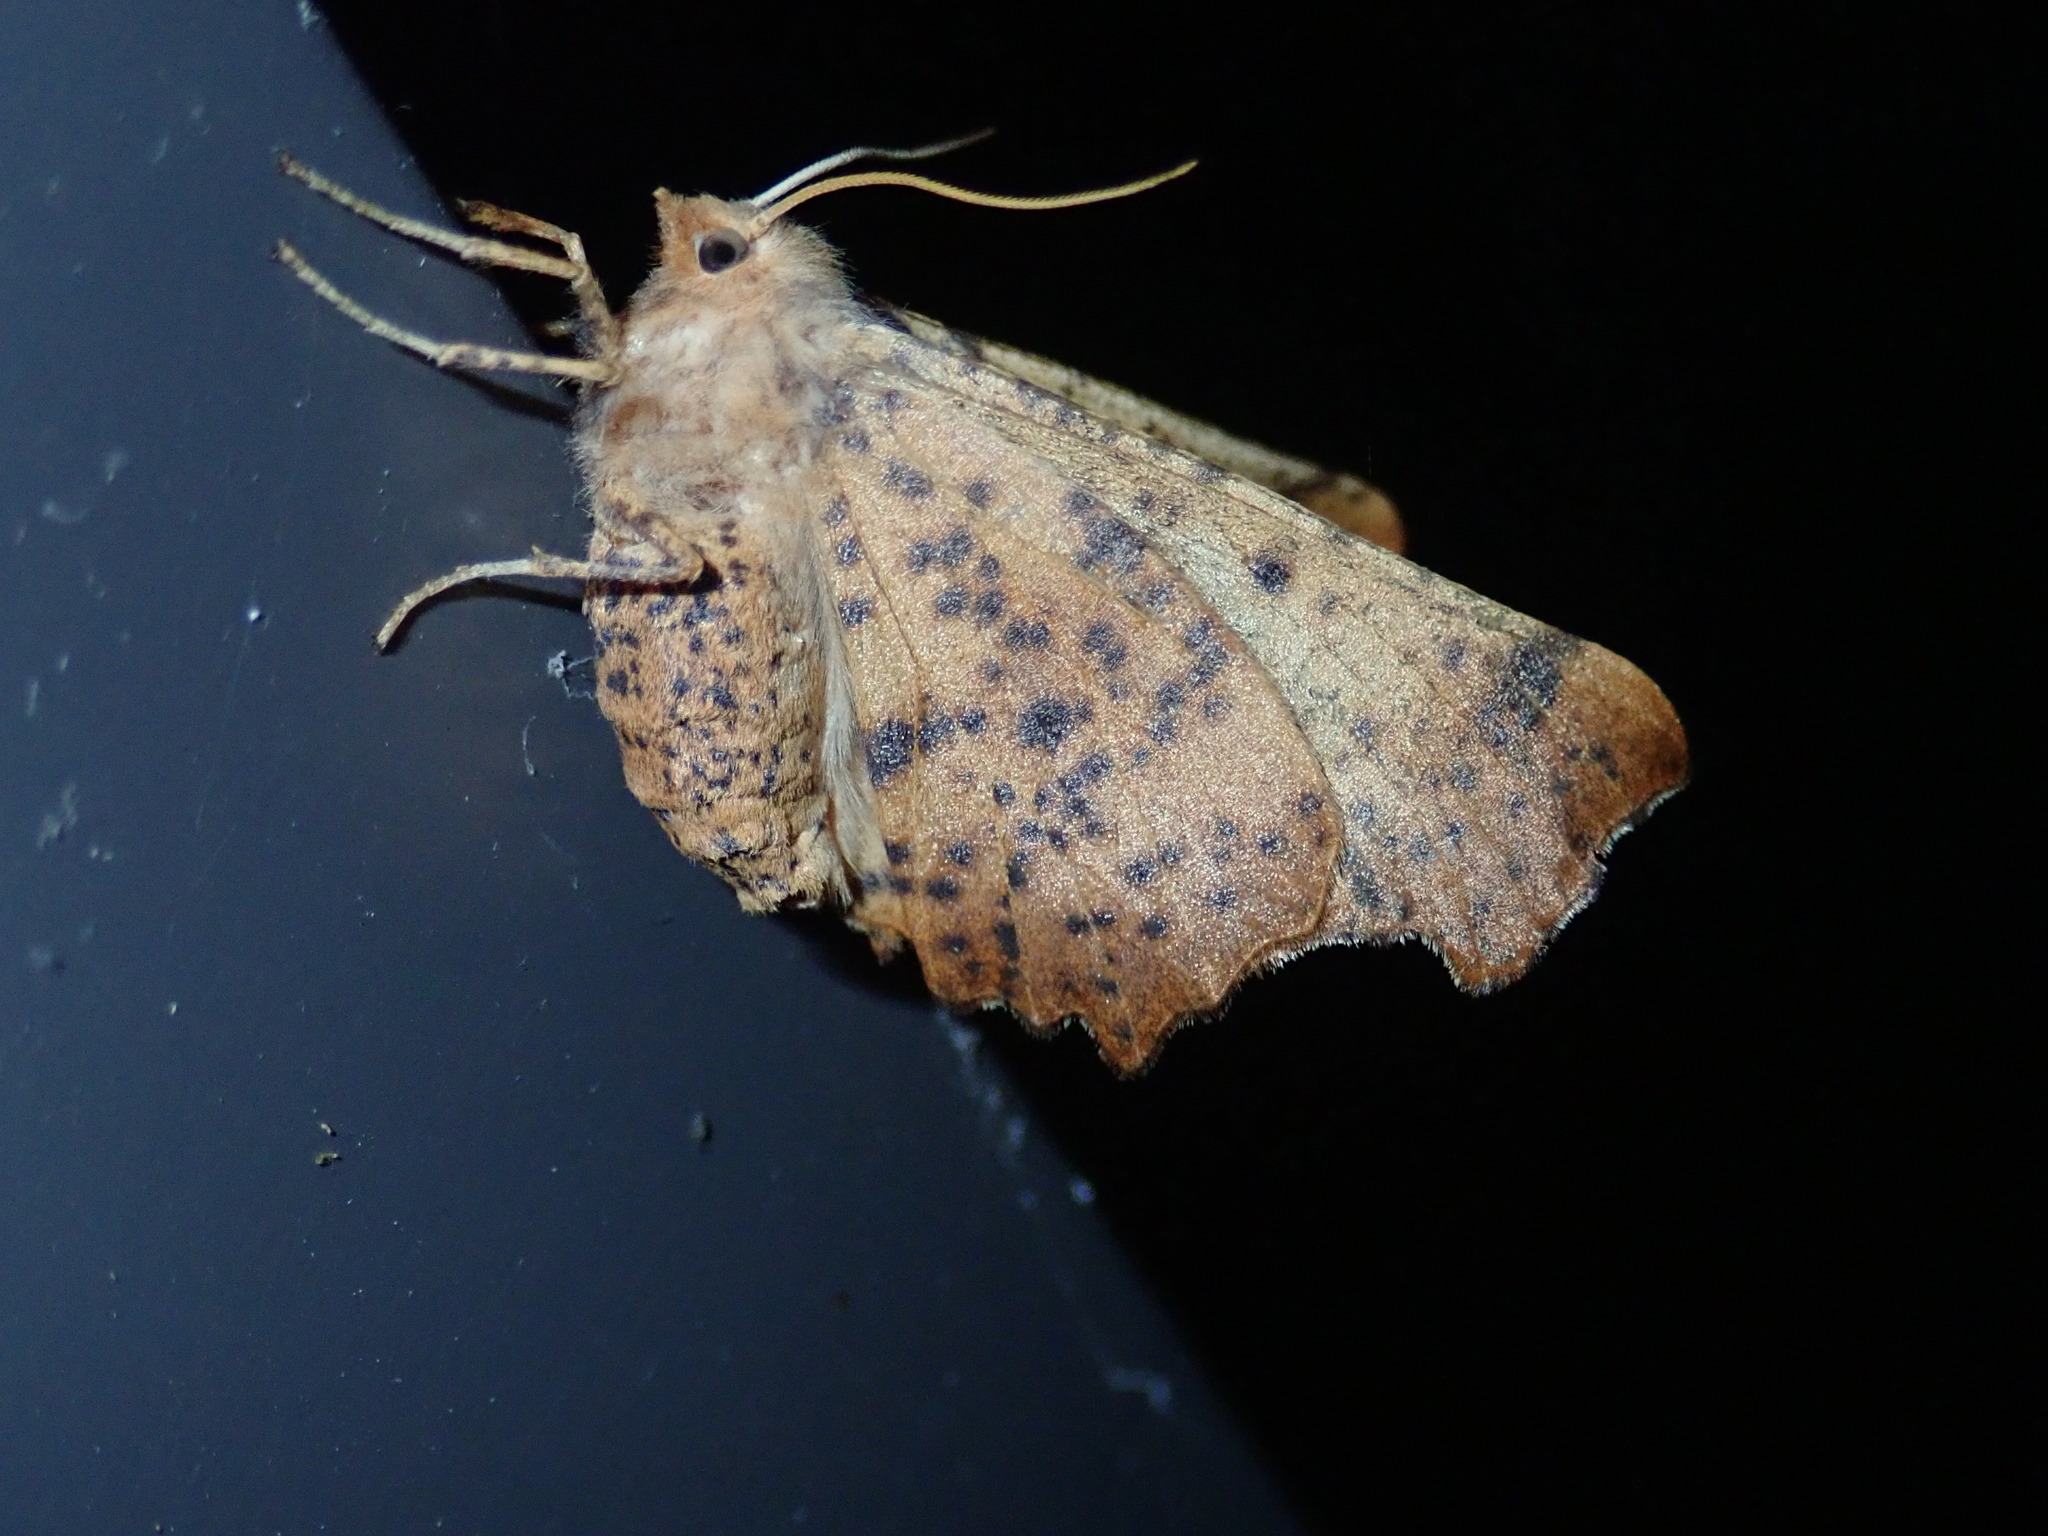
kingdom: Animalia
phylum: Arthropoda
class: Insecta
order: Lepidoptera
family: Geometridae
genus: Ennomos
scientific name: Ennomos magnaria
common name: Maple spanworm
